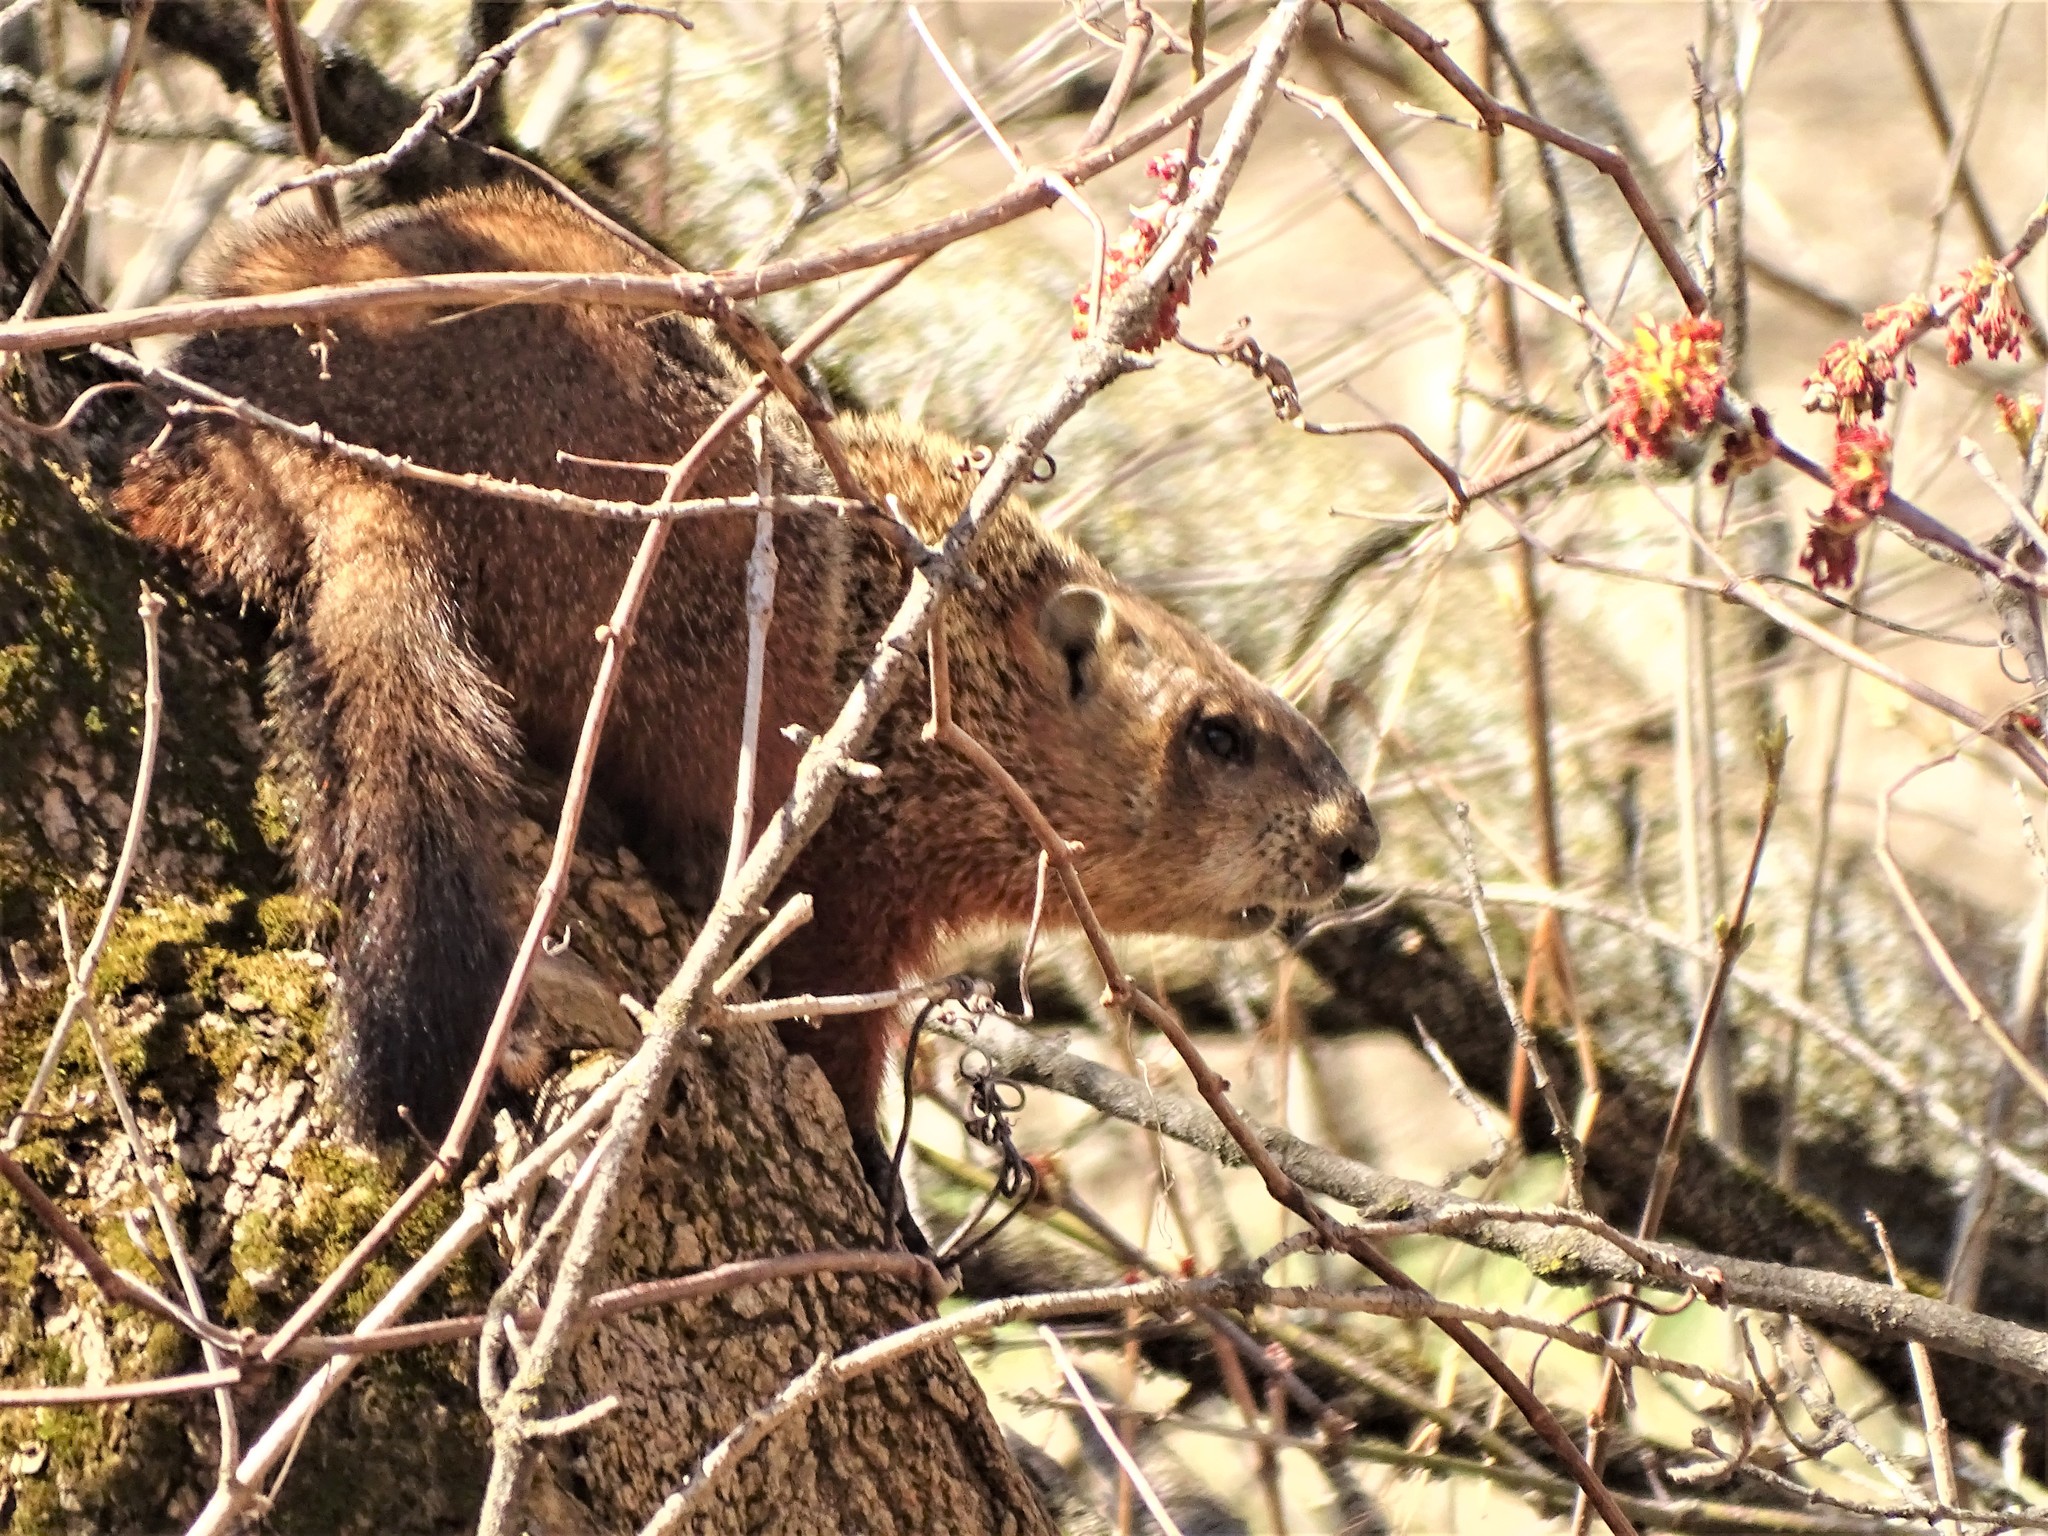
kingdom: Animalia
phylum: Chordata
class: Mammalia
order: Rodentia
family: Sciuridae
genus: Marmota
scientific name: Marmota monax
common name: Groundhog
